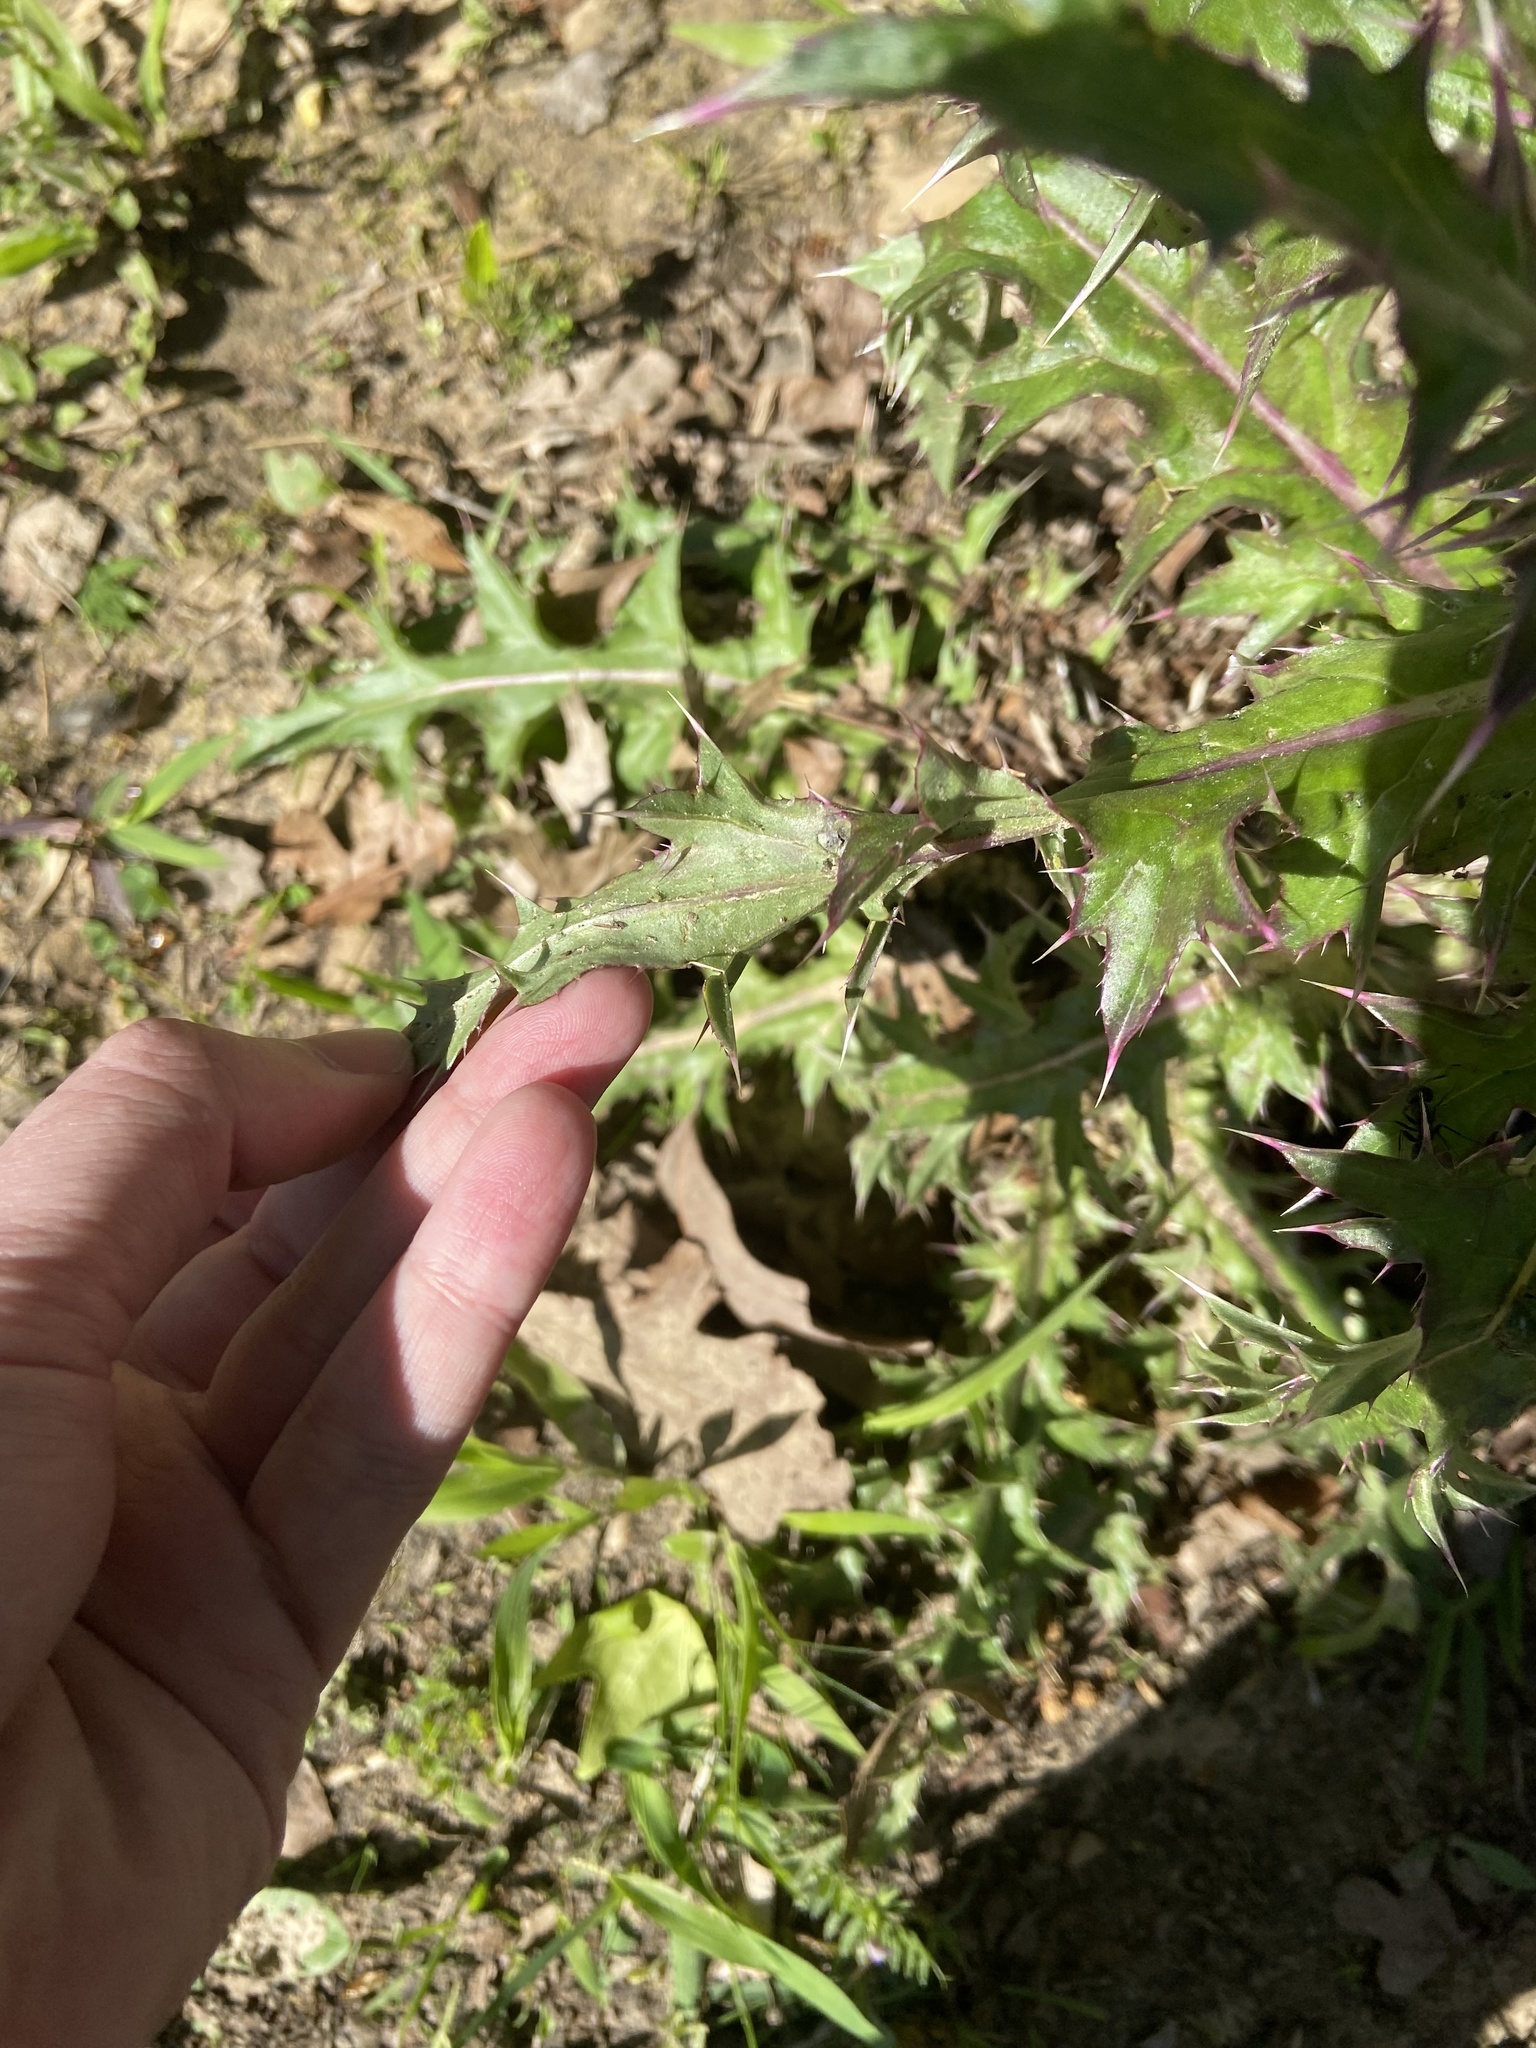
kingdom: Plantae
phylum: Tracheophyta
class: Magnoliopsida
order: Asterales
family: Asteraceae
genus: Cirsium
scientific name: Cirsium horridulum
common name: Bristly thistle
